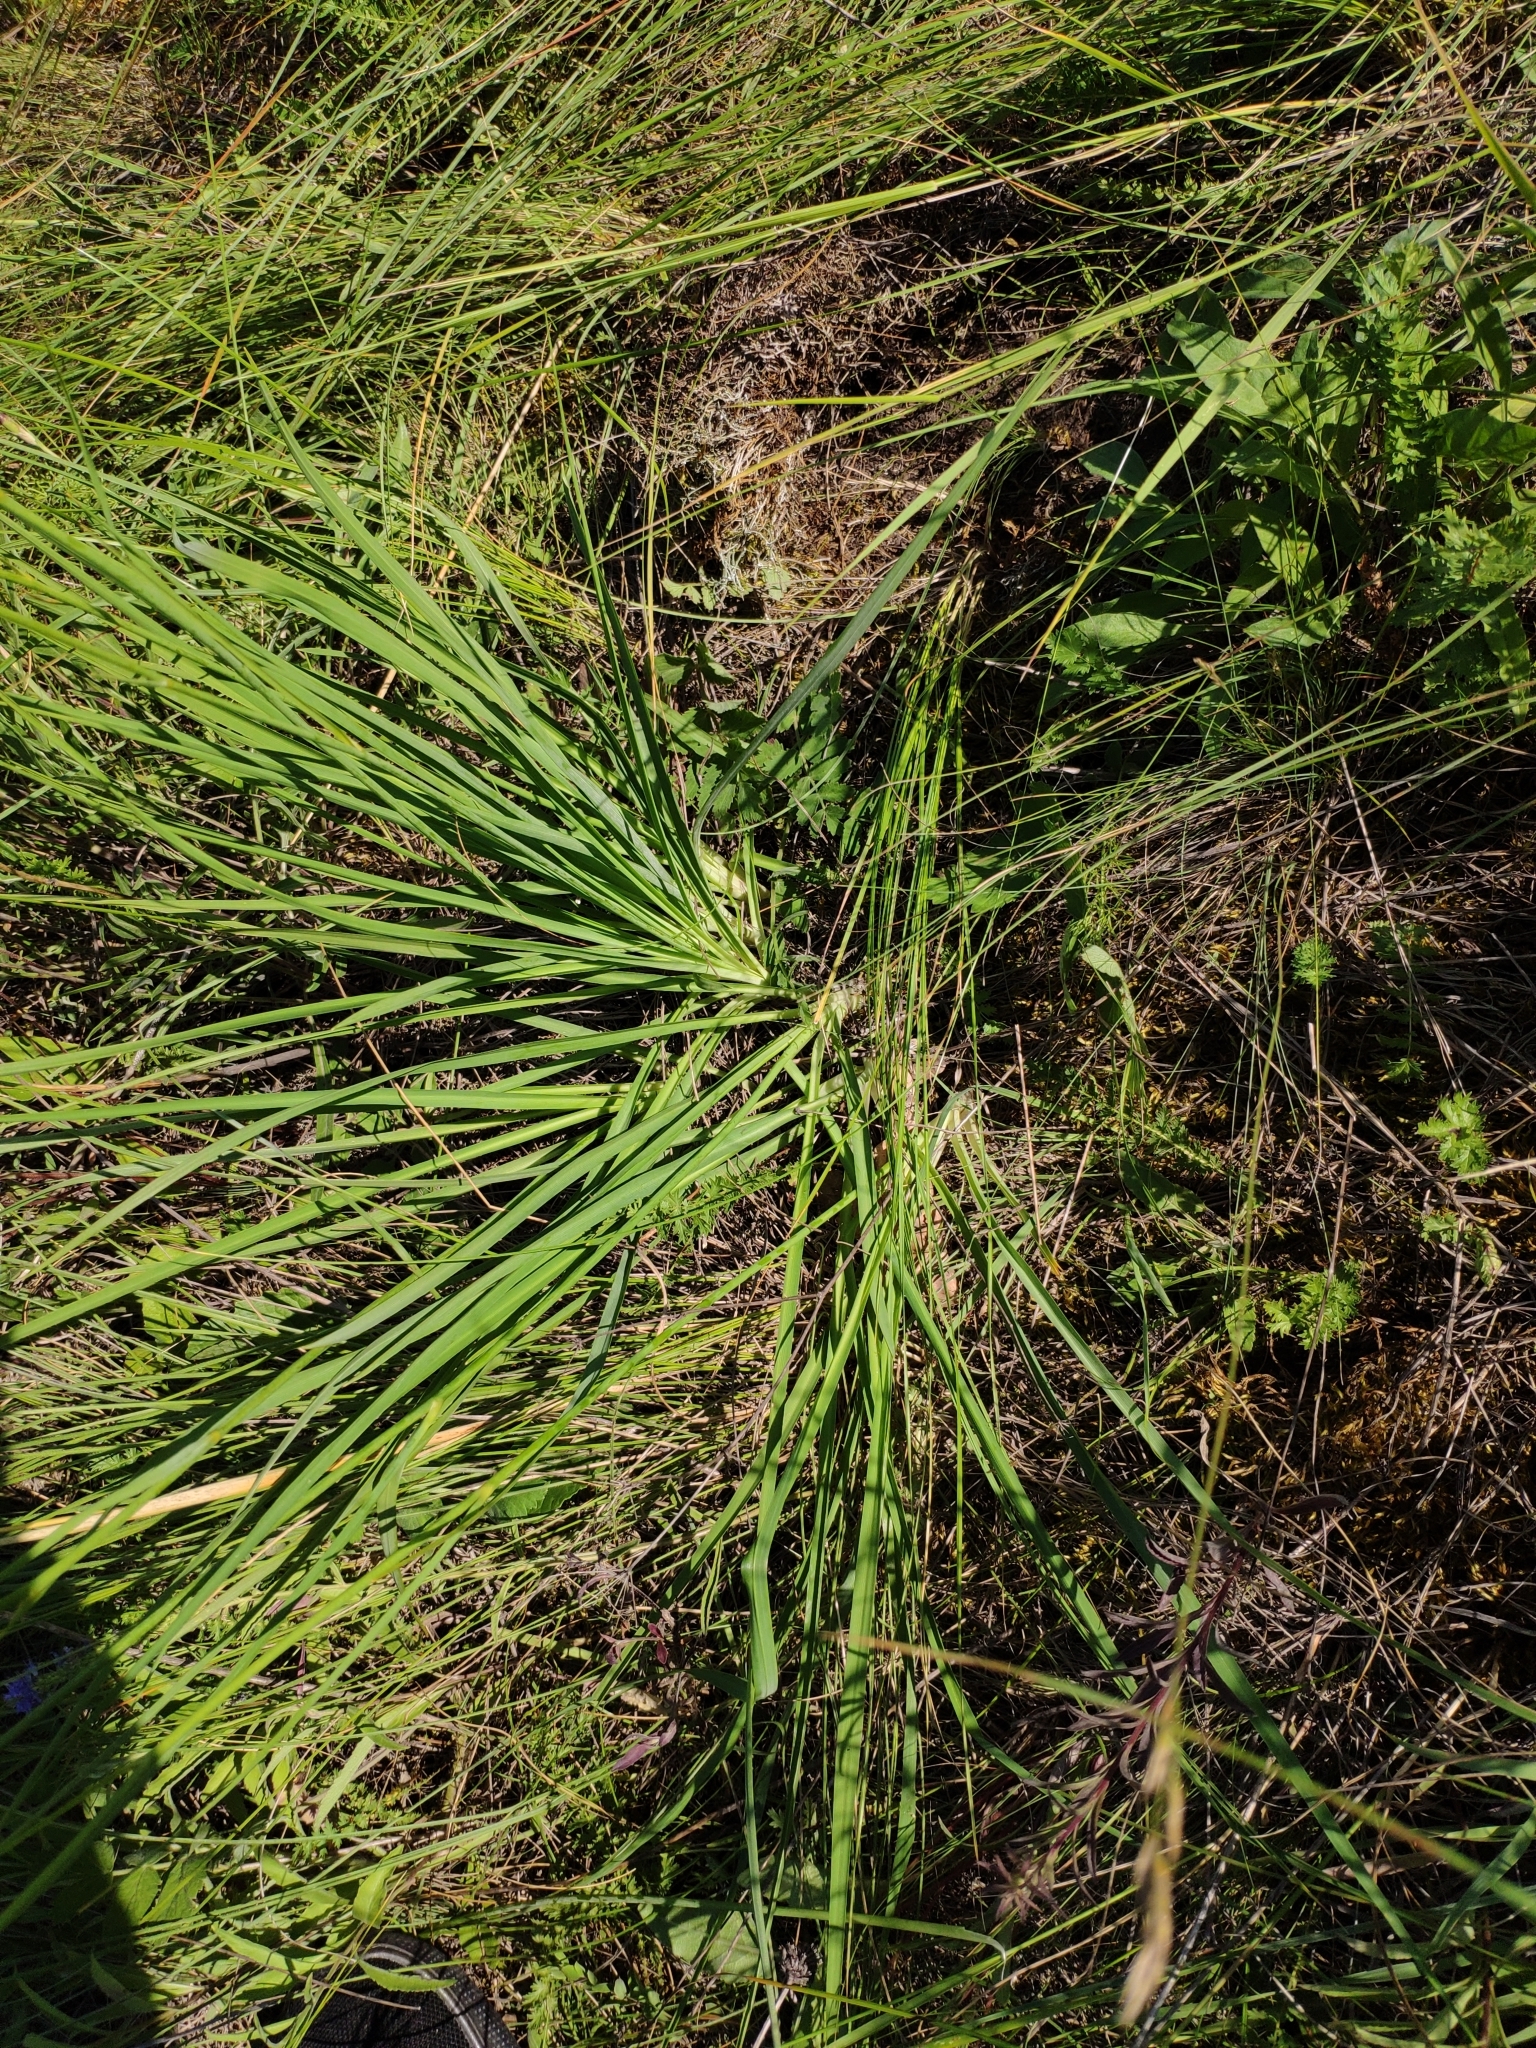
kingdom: Plantae
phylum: Tracheophyta
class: Liliopsida
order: Asparagales
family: Asparagaceae
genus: Anthericum
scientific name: Anthericum ramosum
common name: Branched st. bernard's-lily
